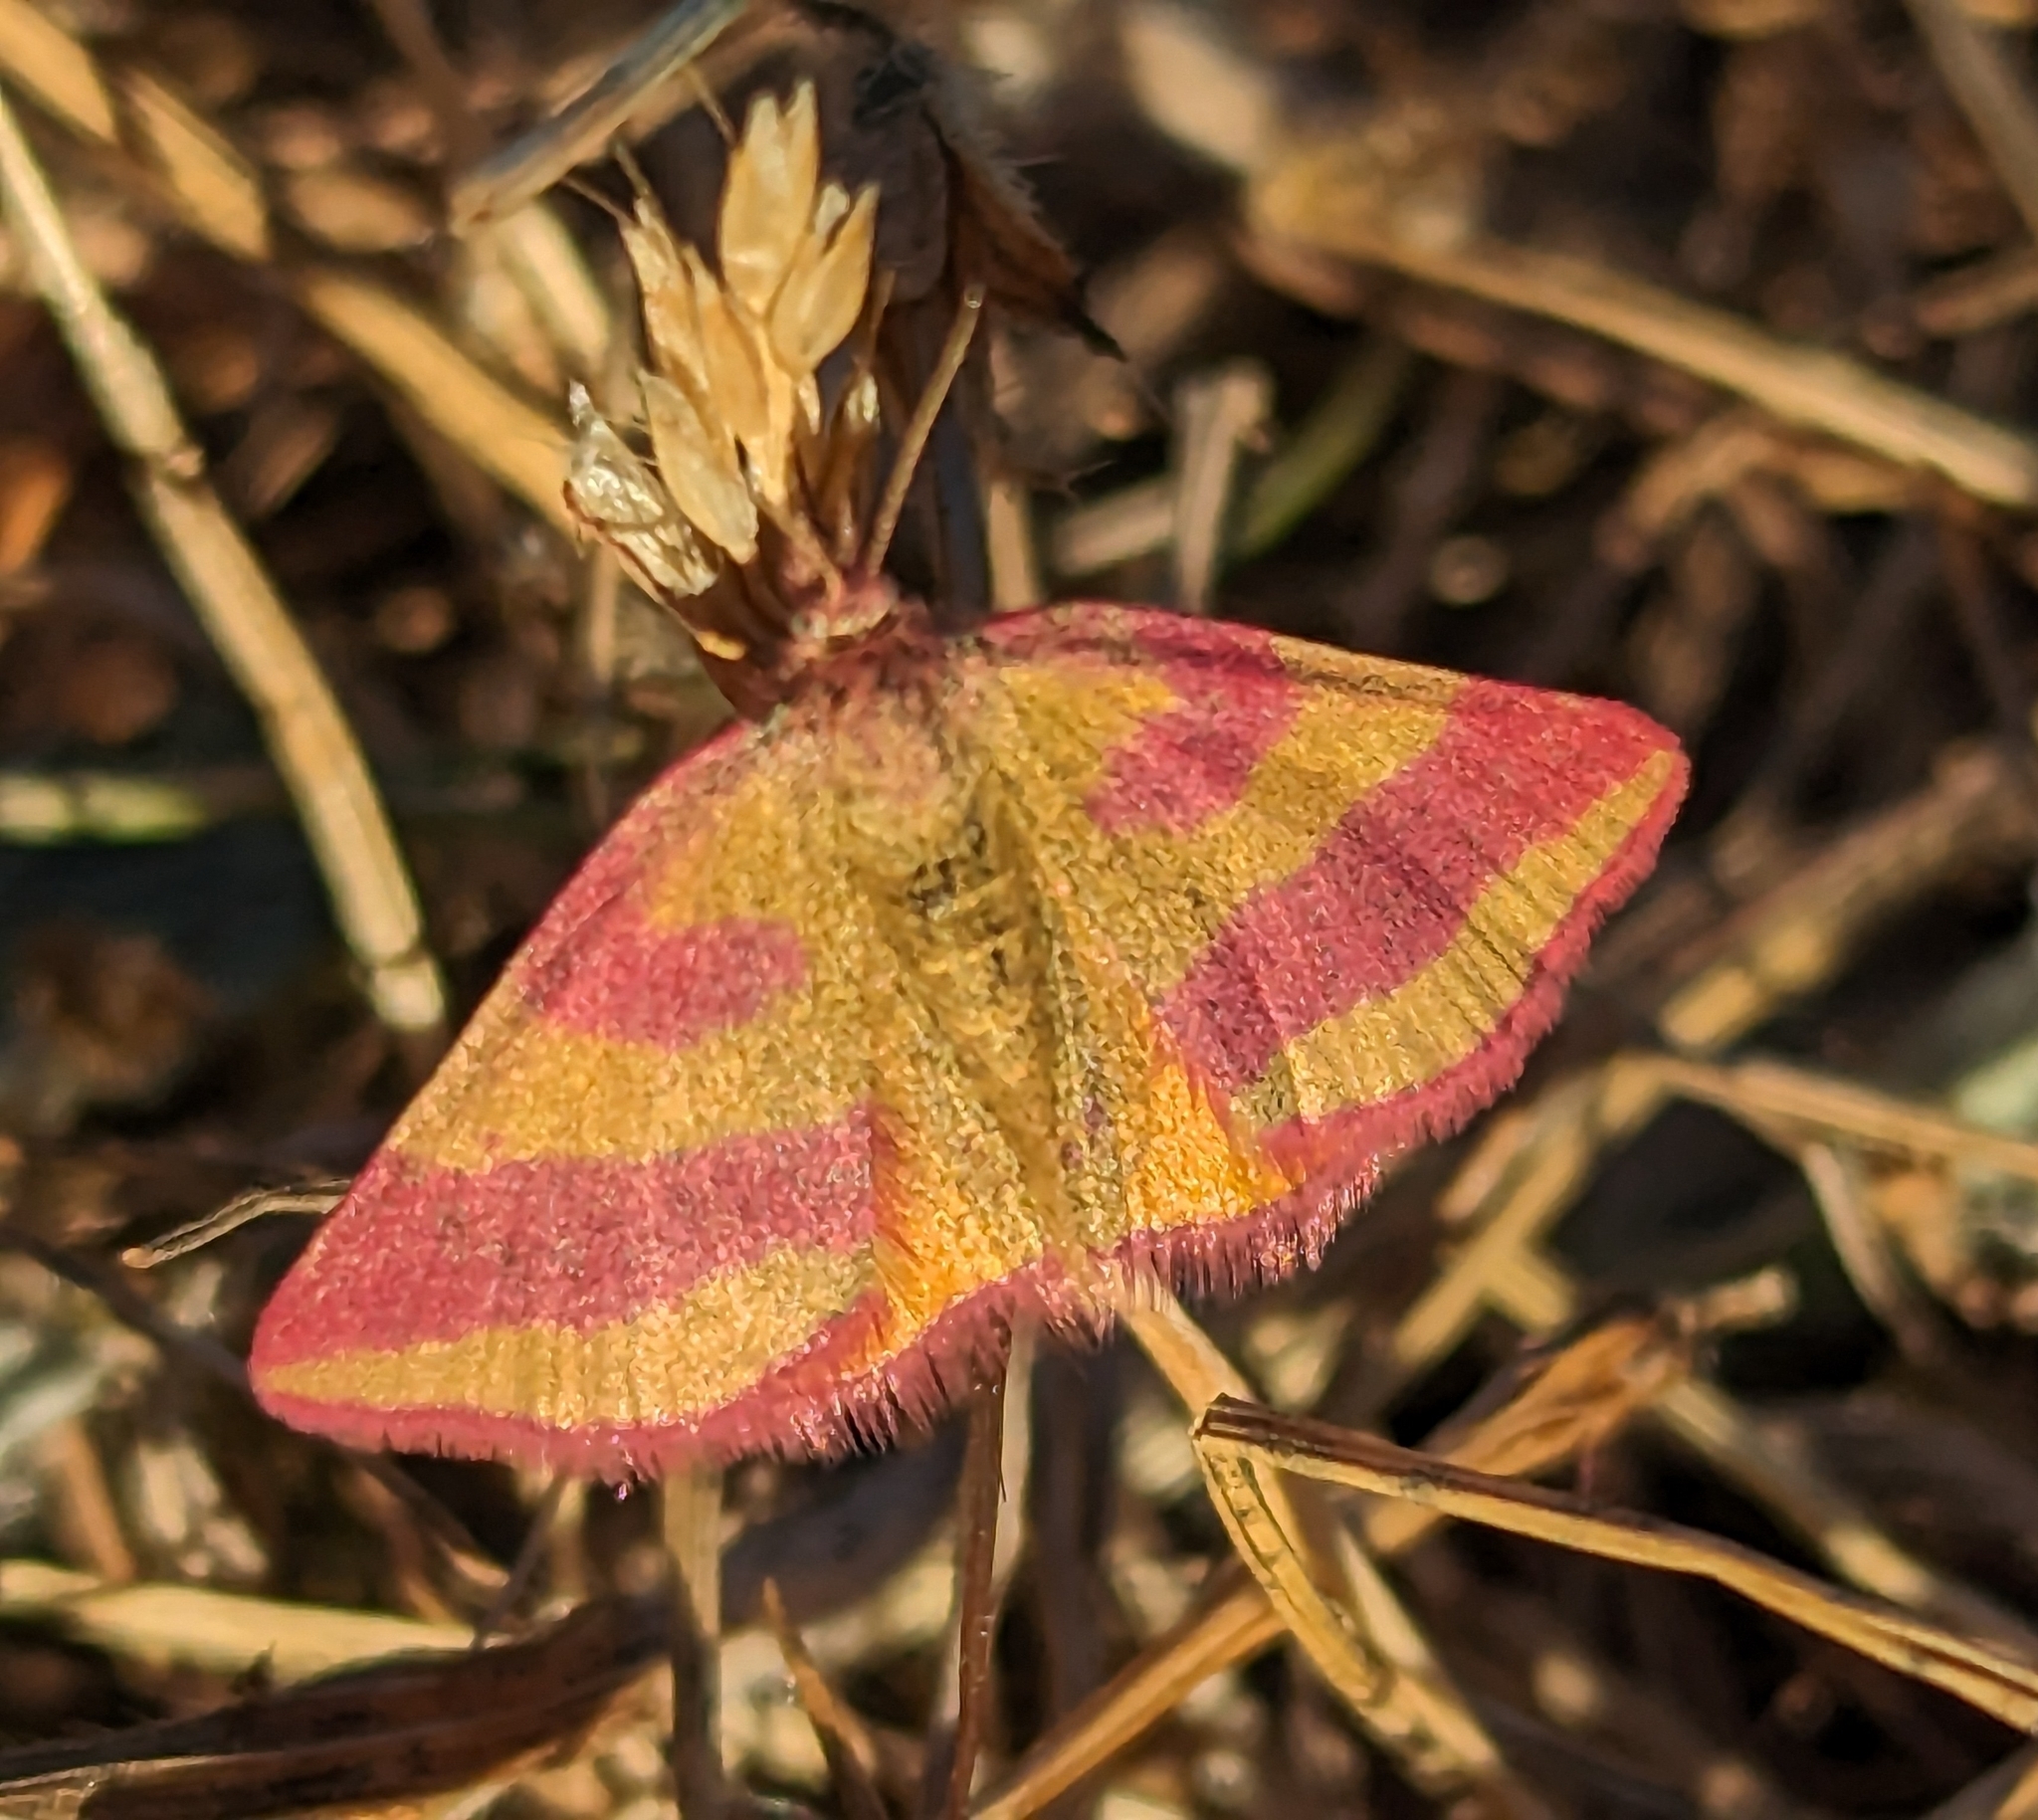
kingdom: Animalia
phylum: Arthropoda
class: Insecta
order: Lepidoptera
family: Geometridae
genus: Lythria
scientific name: Lythria cruentaria
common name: Purple-barred yellow
